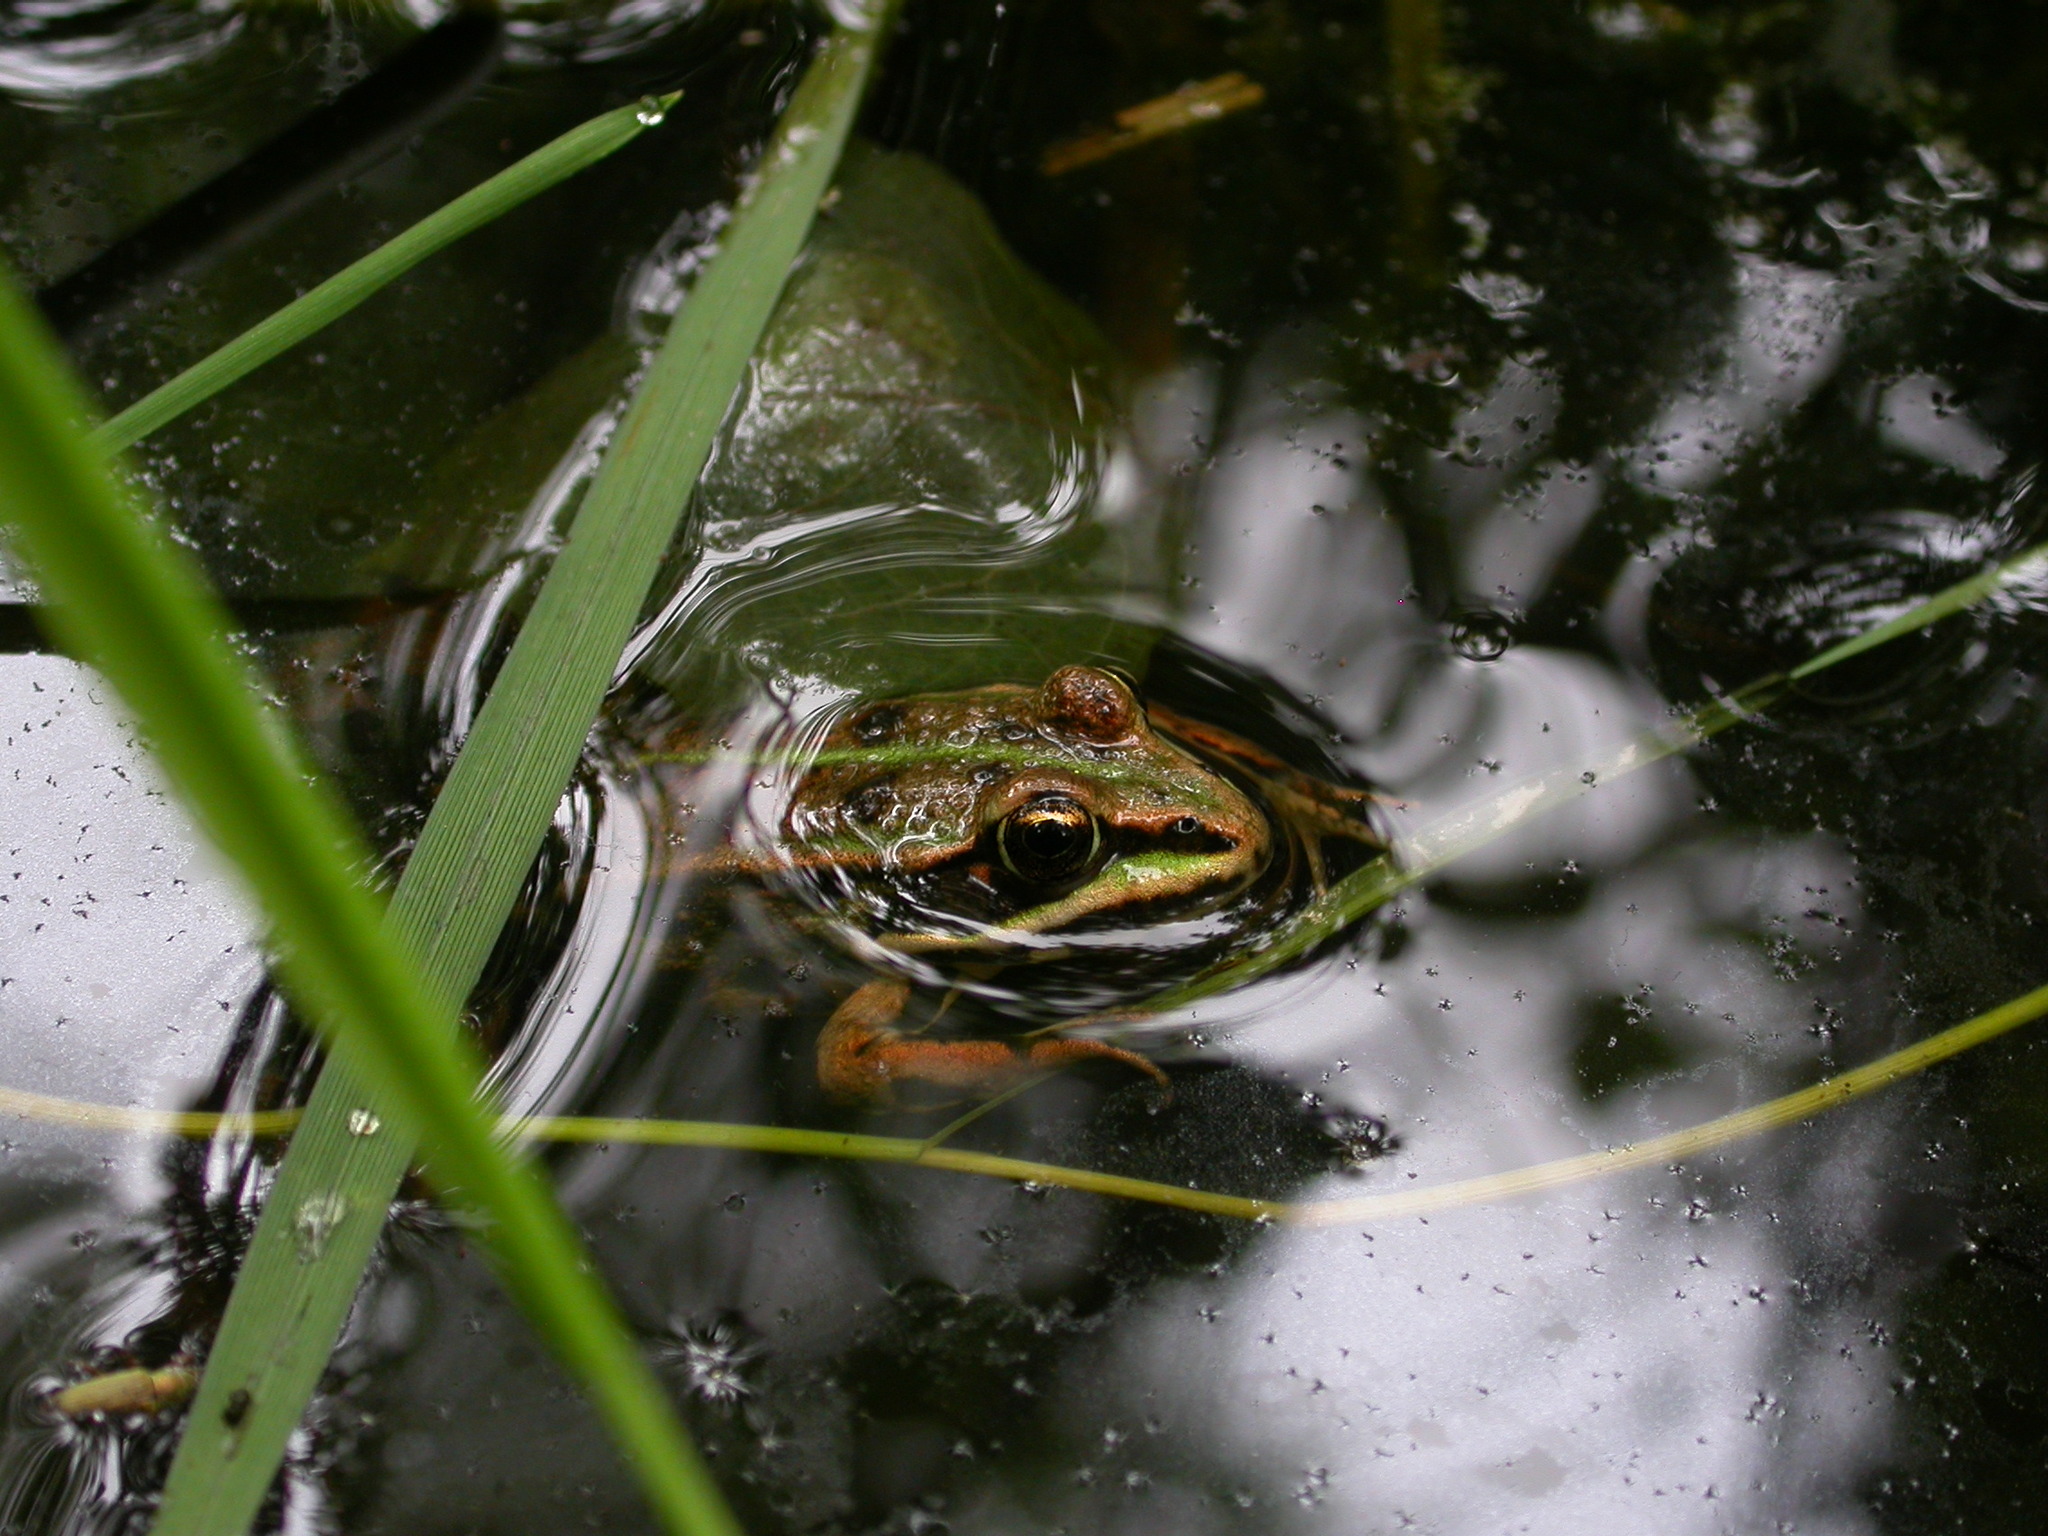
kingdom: Animalia
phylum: Chordata
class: Amphibia
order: Anura
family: Ranidae
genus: Pelophylax
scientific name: Pelophylax
